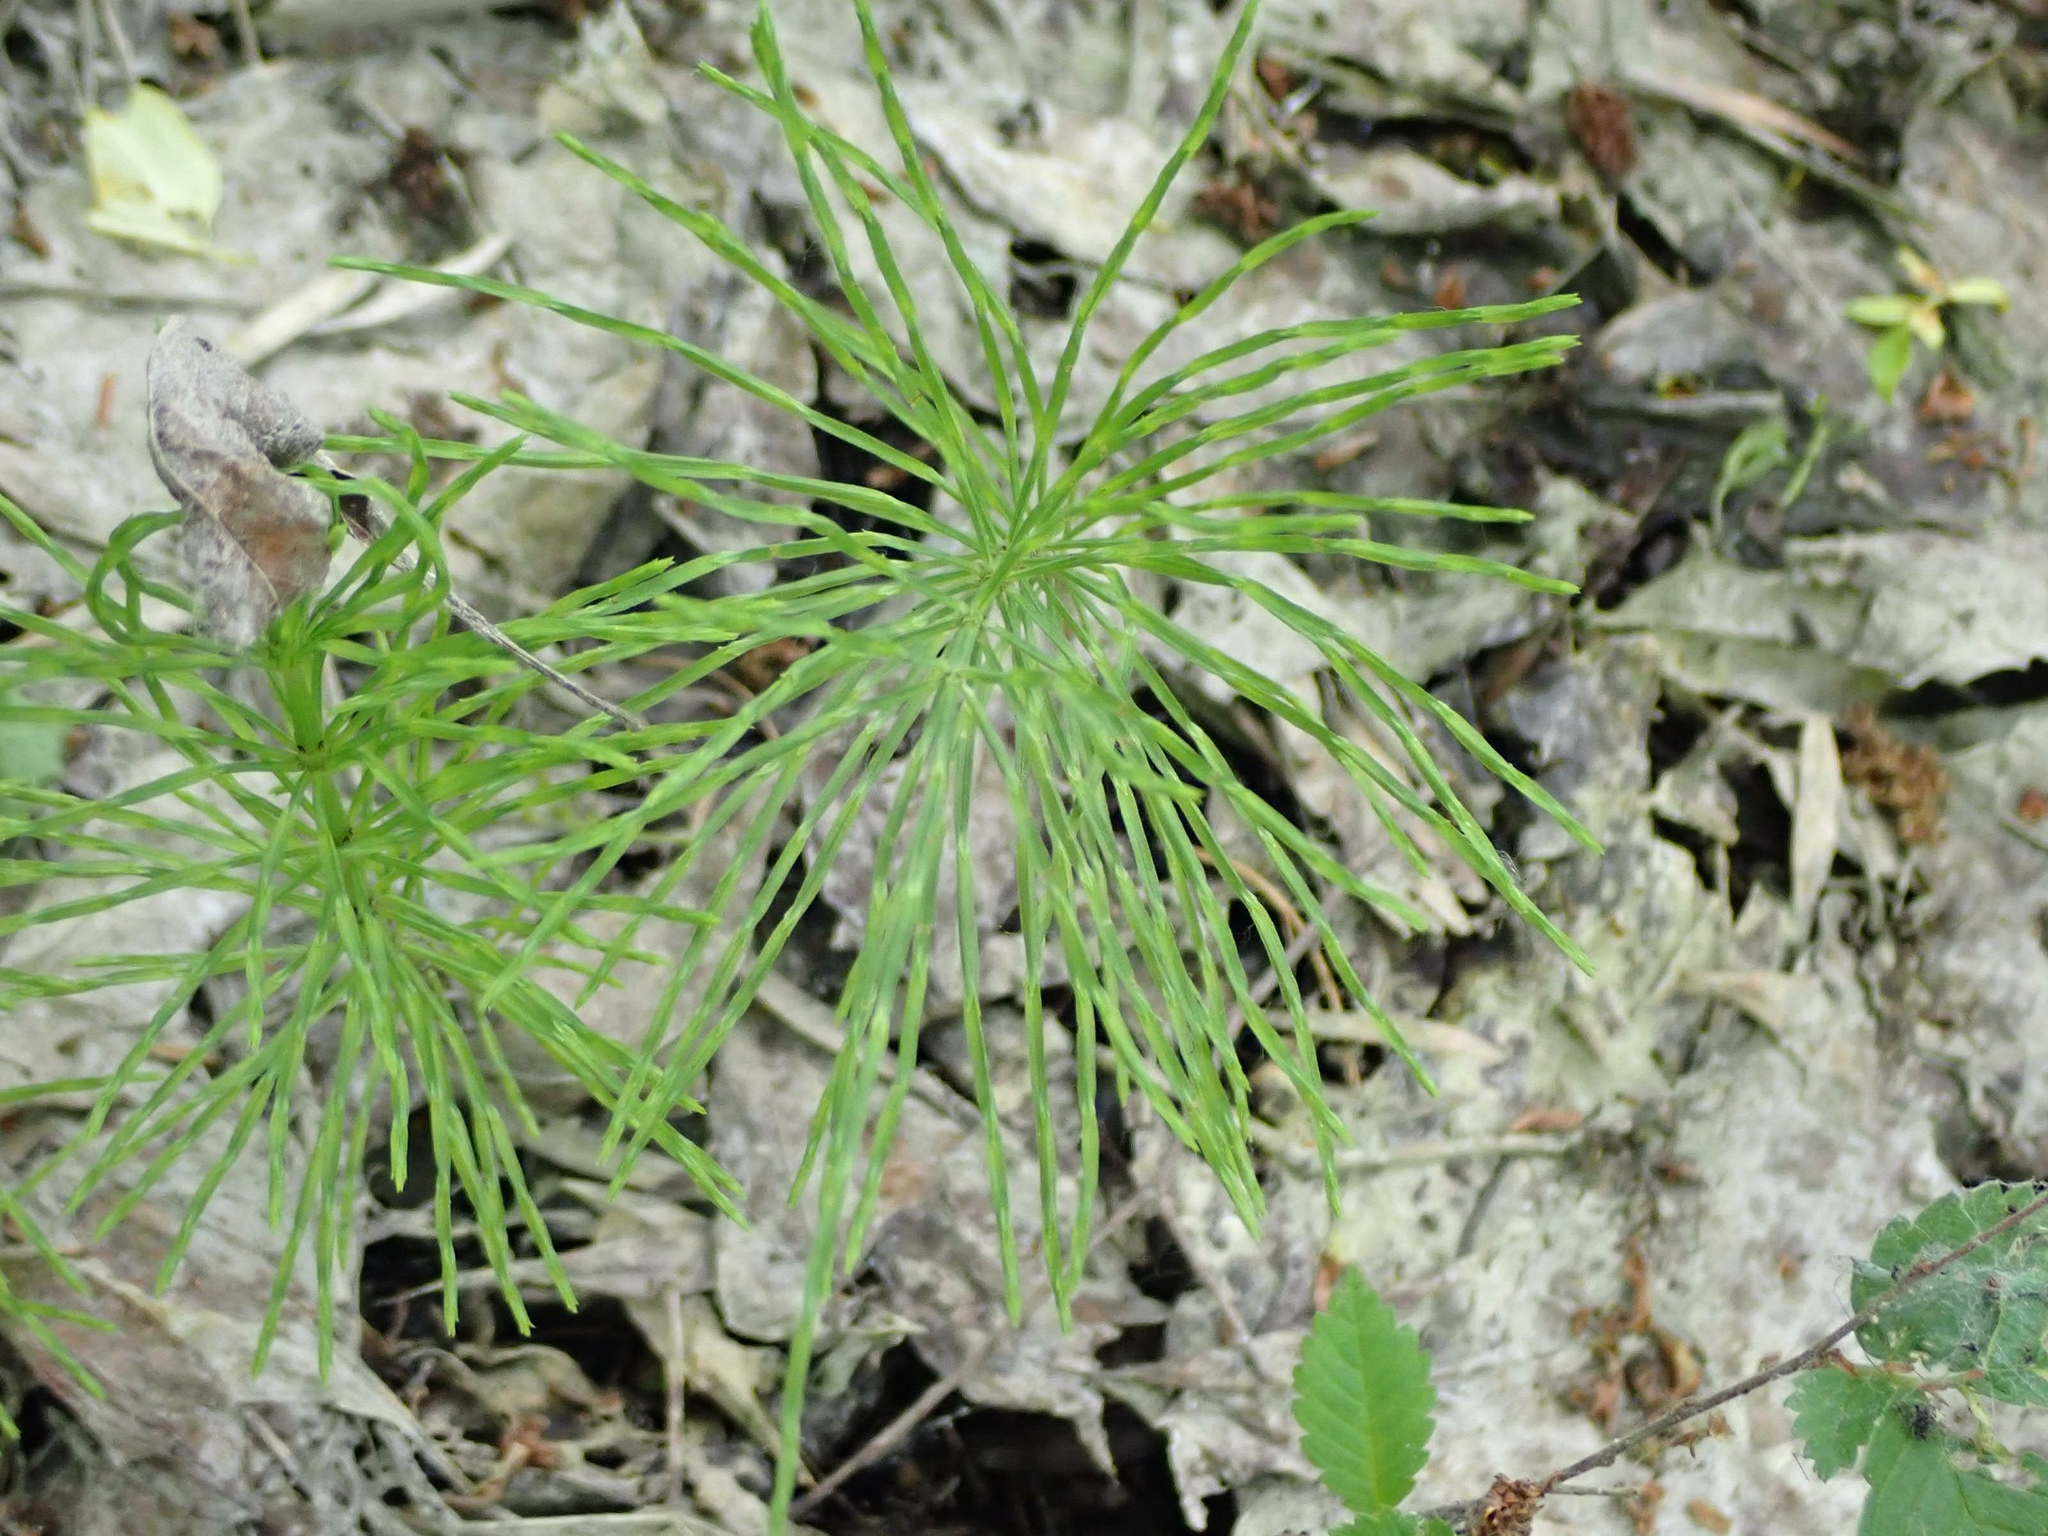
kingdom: Plantae
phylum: Tracheophyta
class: Polypodiopsida
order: Equisetales
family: Equisetaceae
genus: Equisetum
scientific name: Equisetum arvense
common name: Field horsetail
